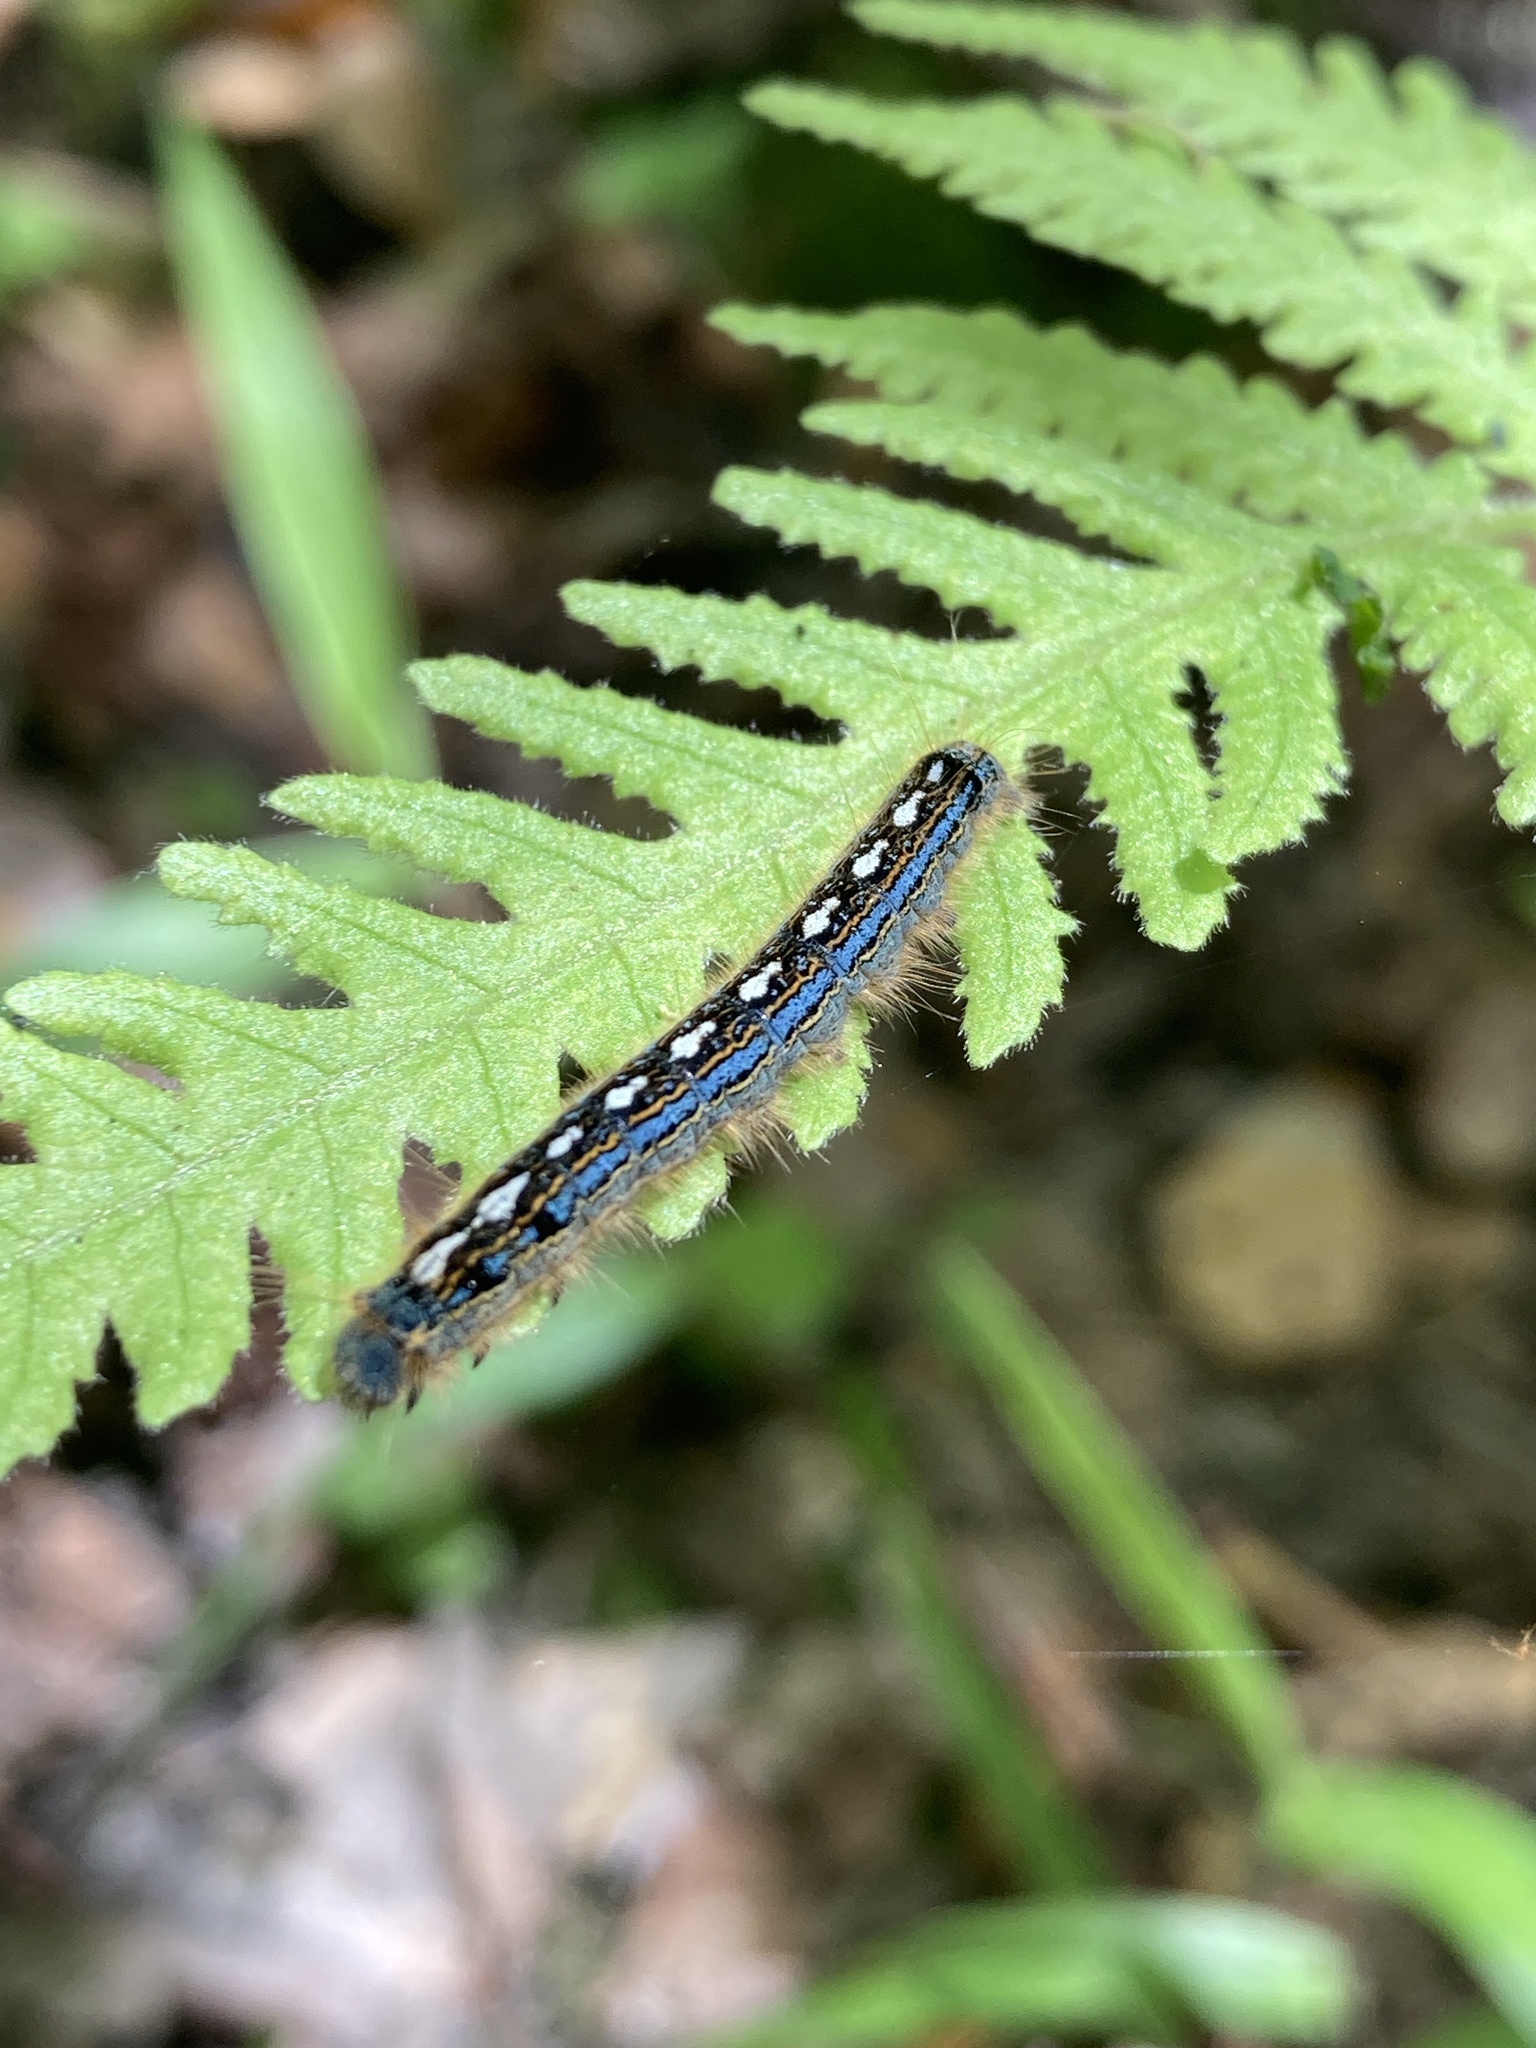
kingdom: Animalia
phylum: Arthropoda
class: Insecta
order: Lepidoptera
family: Lasiocampidae
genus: Malacosoma
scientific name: Malacosoma disstria
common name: Forest tent caterpillar
